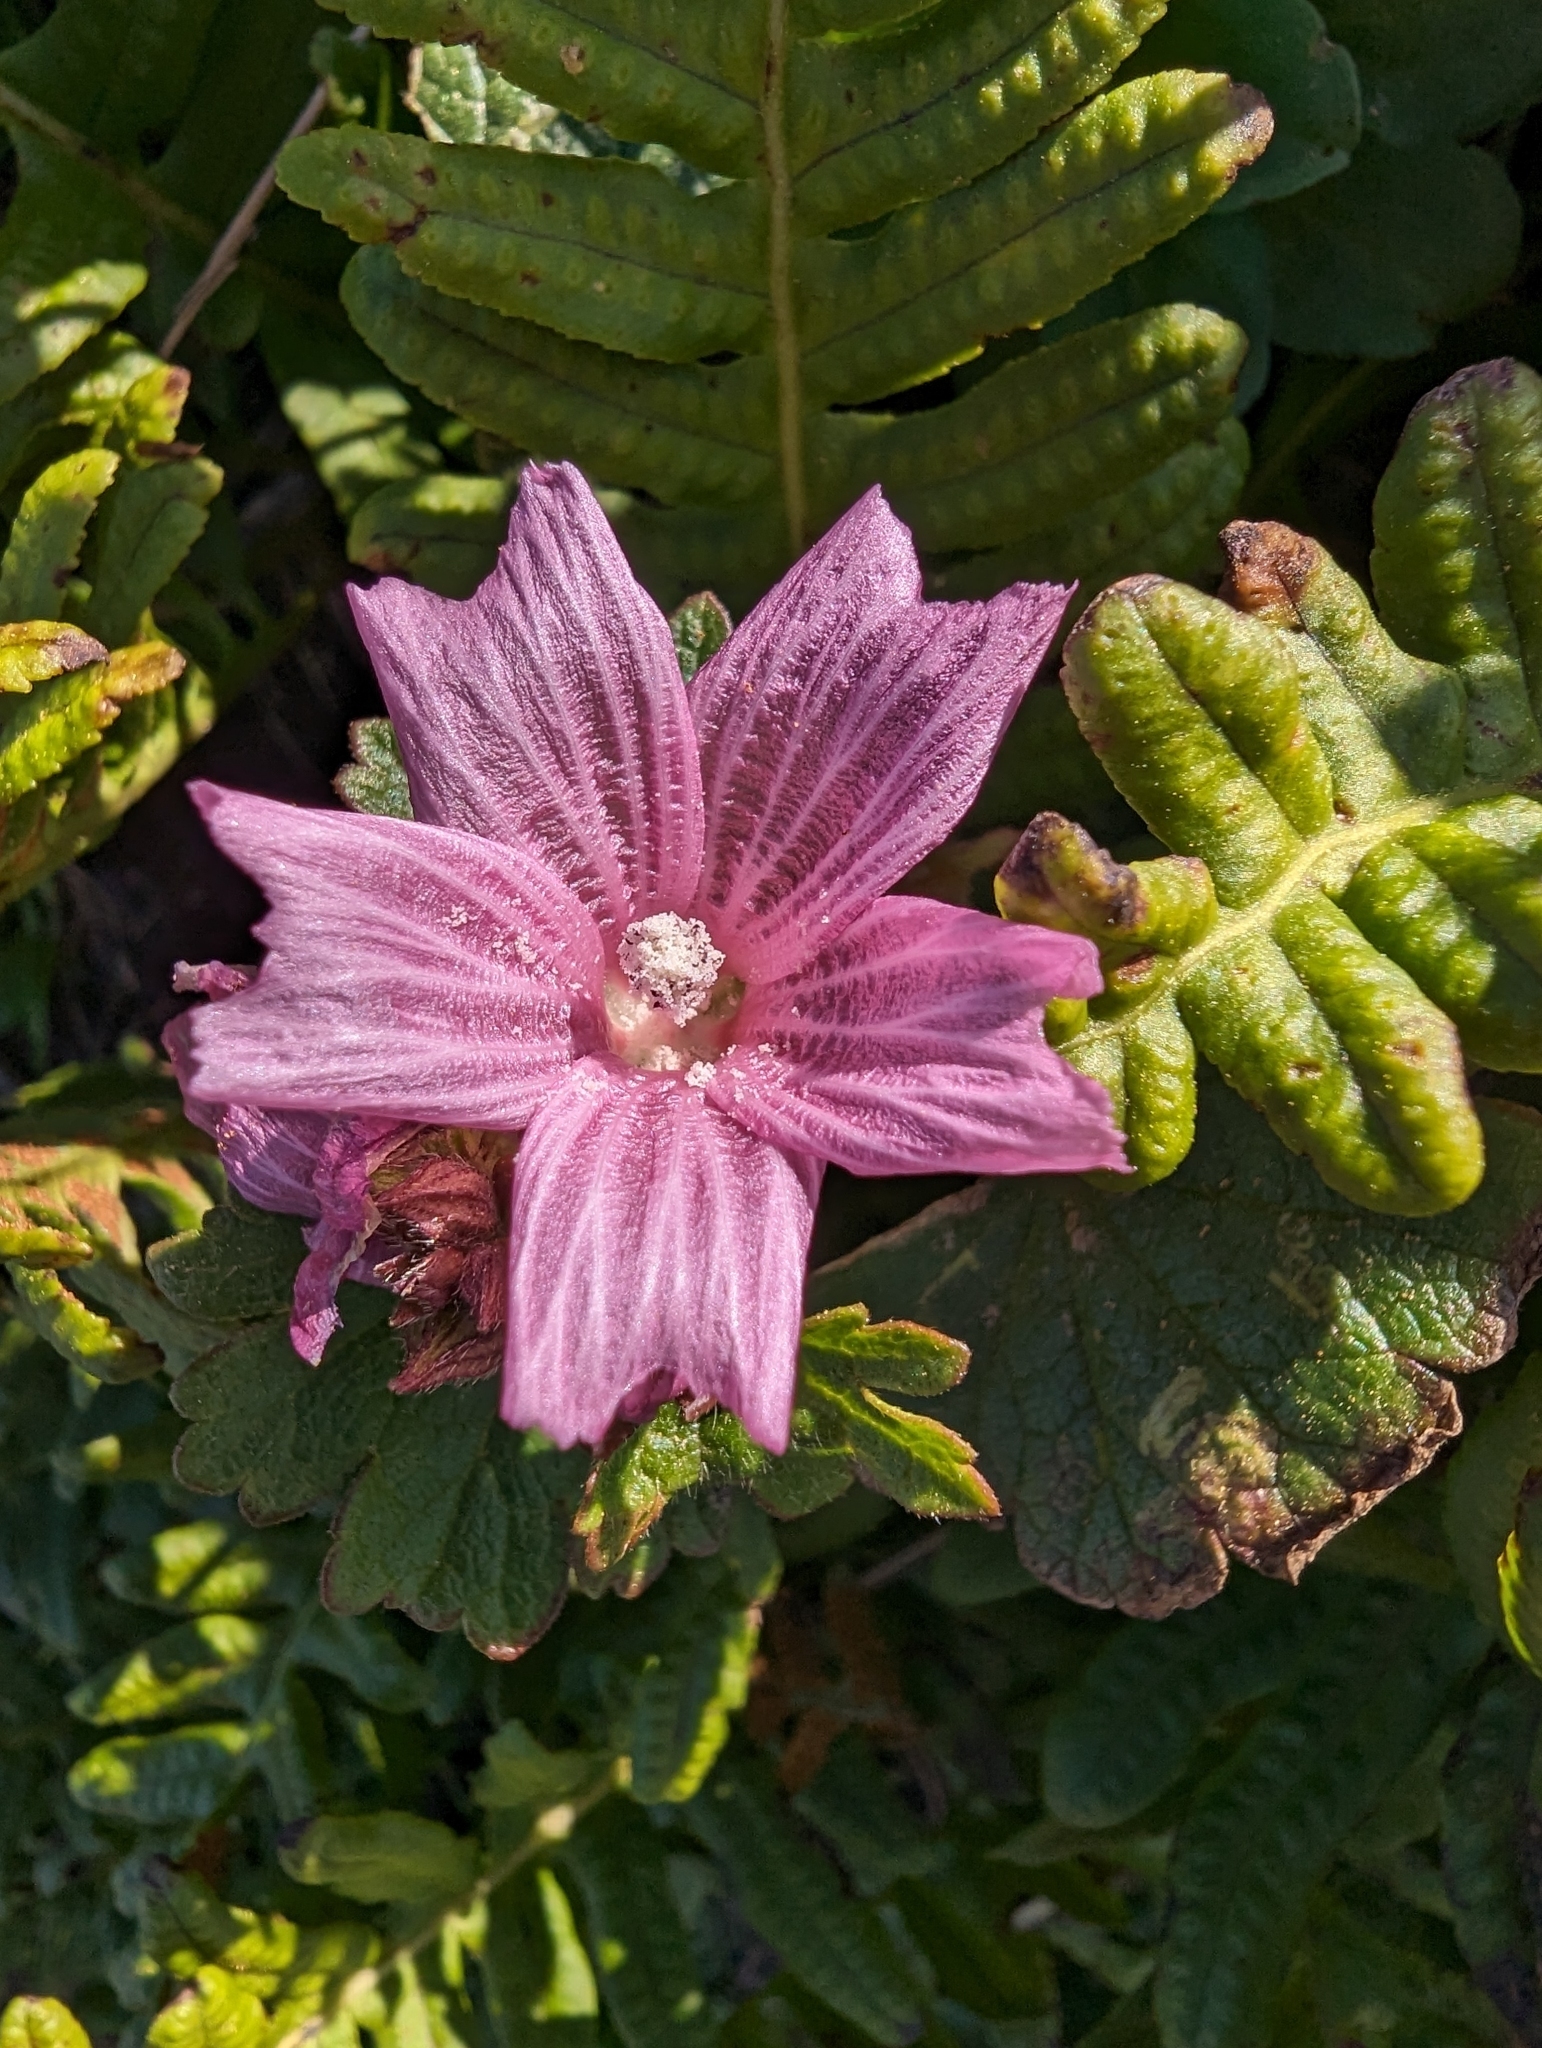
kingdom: Plantae
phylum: Tracheophyta
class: Magnoliopsida
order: Malvales
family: Malvaceae
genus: Sidalcea
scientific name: Sidalcea malviflora
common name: Greek mallow
